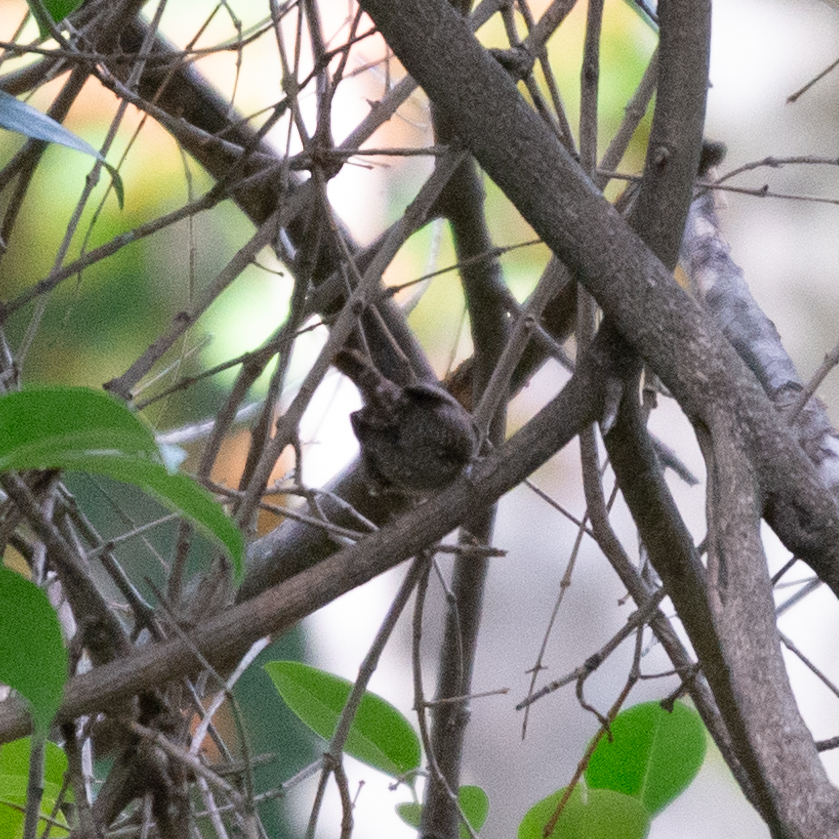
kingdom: Animalia
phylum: Chordata
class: Aves
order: Passeriformes
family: Troglodytidae
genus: Troglodytes
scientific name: Troglodytes troglodytes
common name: Eurasian wren
